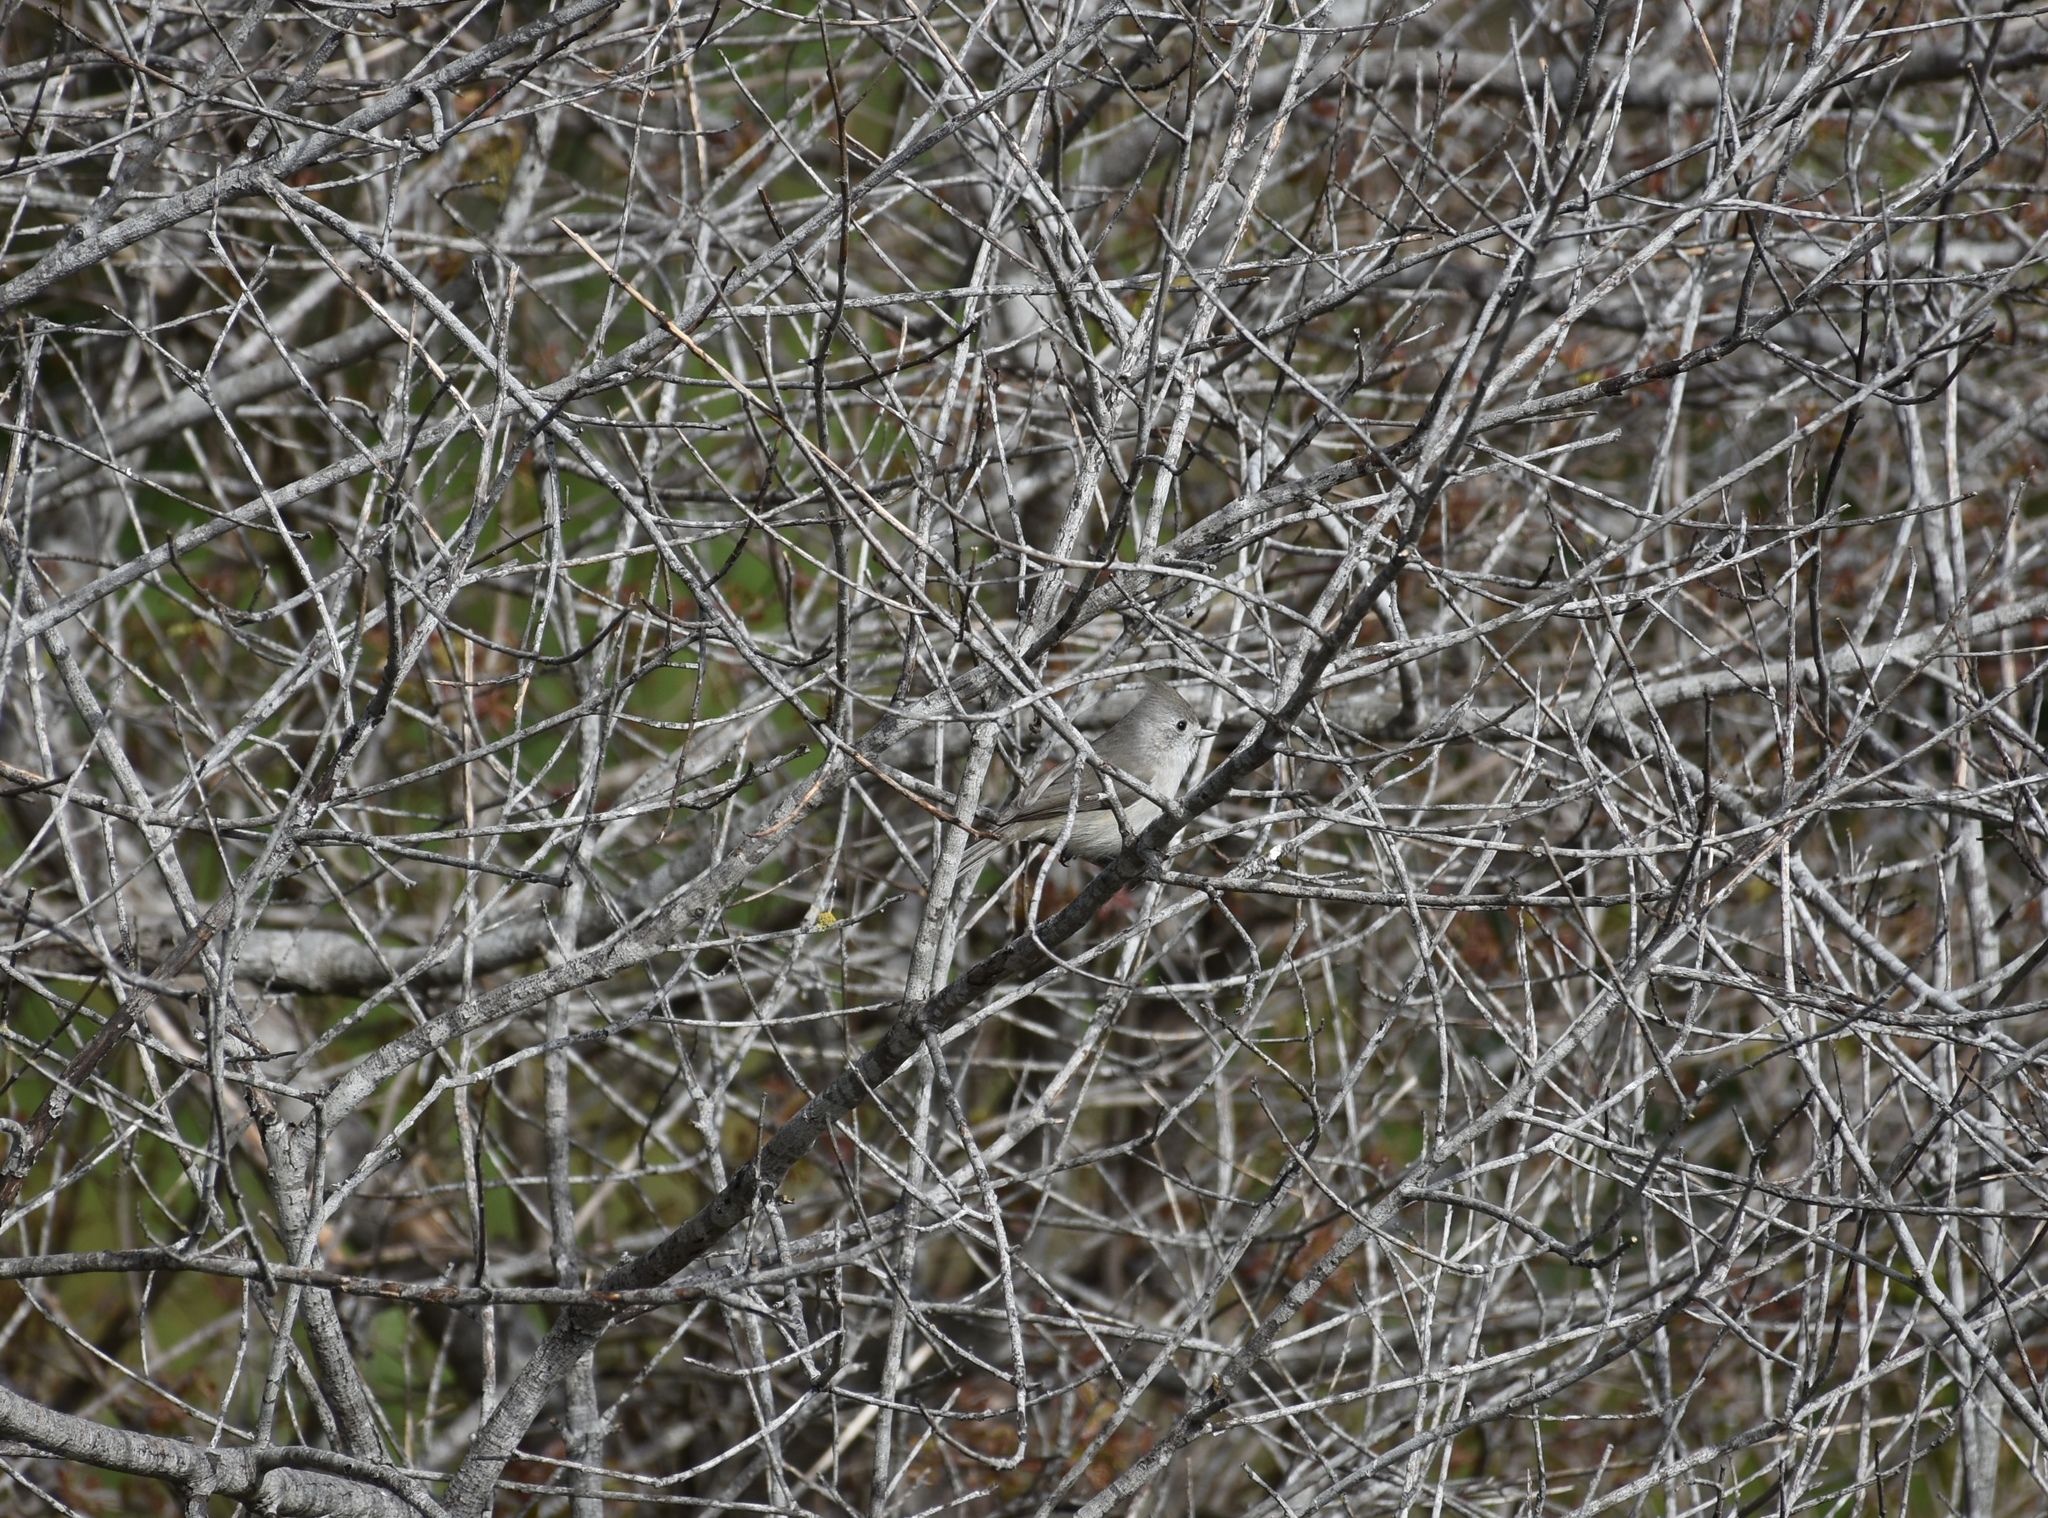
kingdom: Animalia
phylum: Chordata
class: Aves
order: Passeriformes
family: Paridae
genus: Baeolophus
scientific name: Baeolophus inornatus
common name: Oak titmouse
